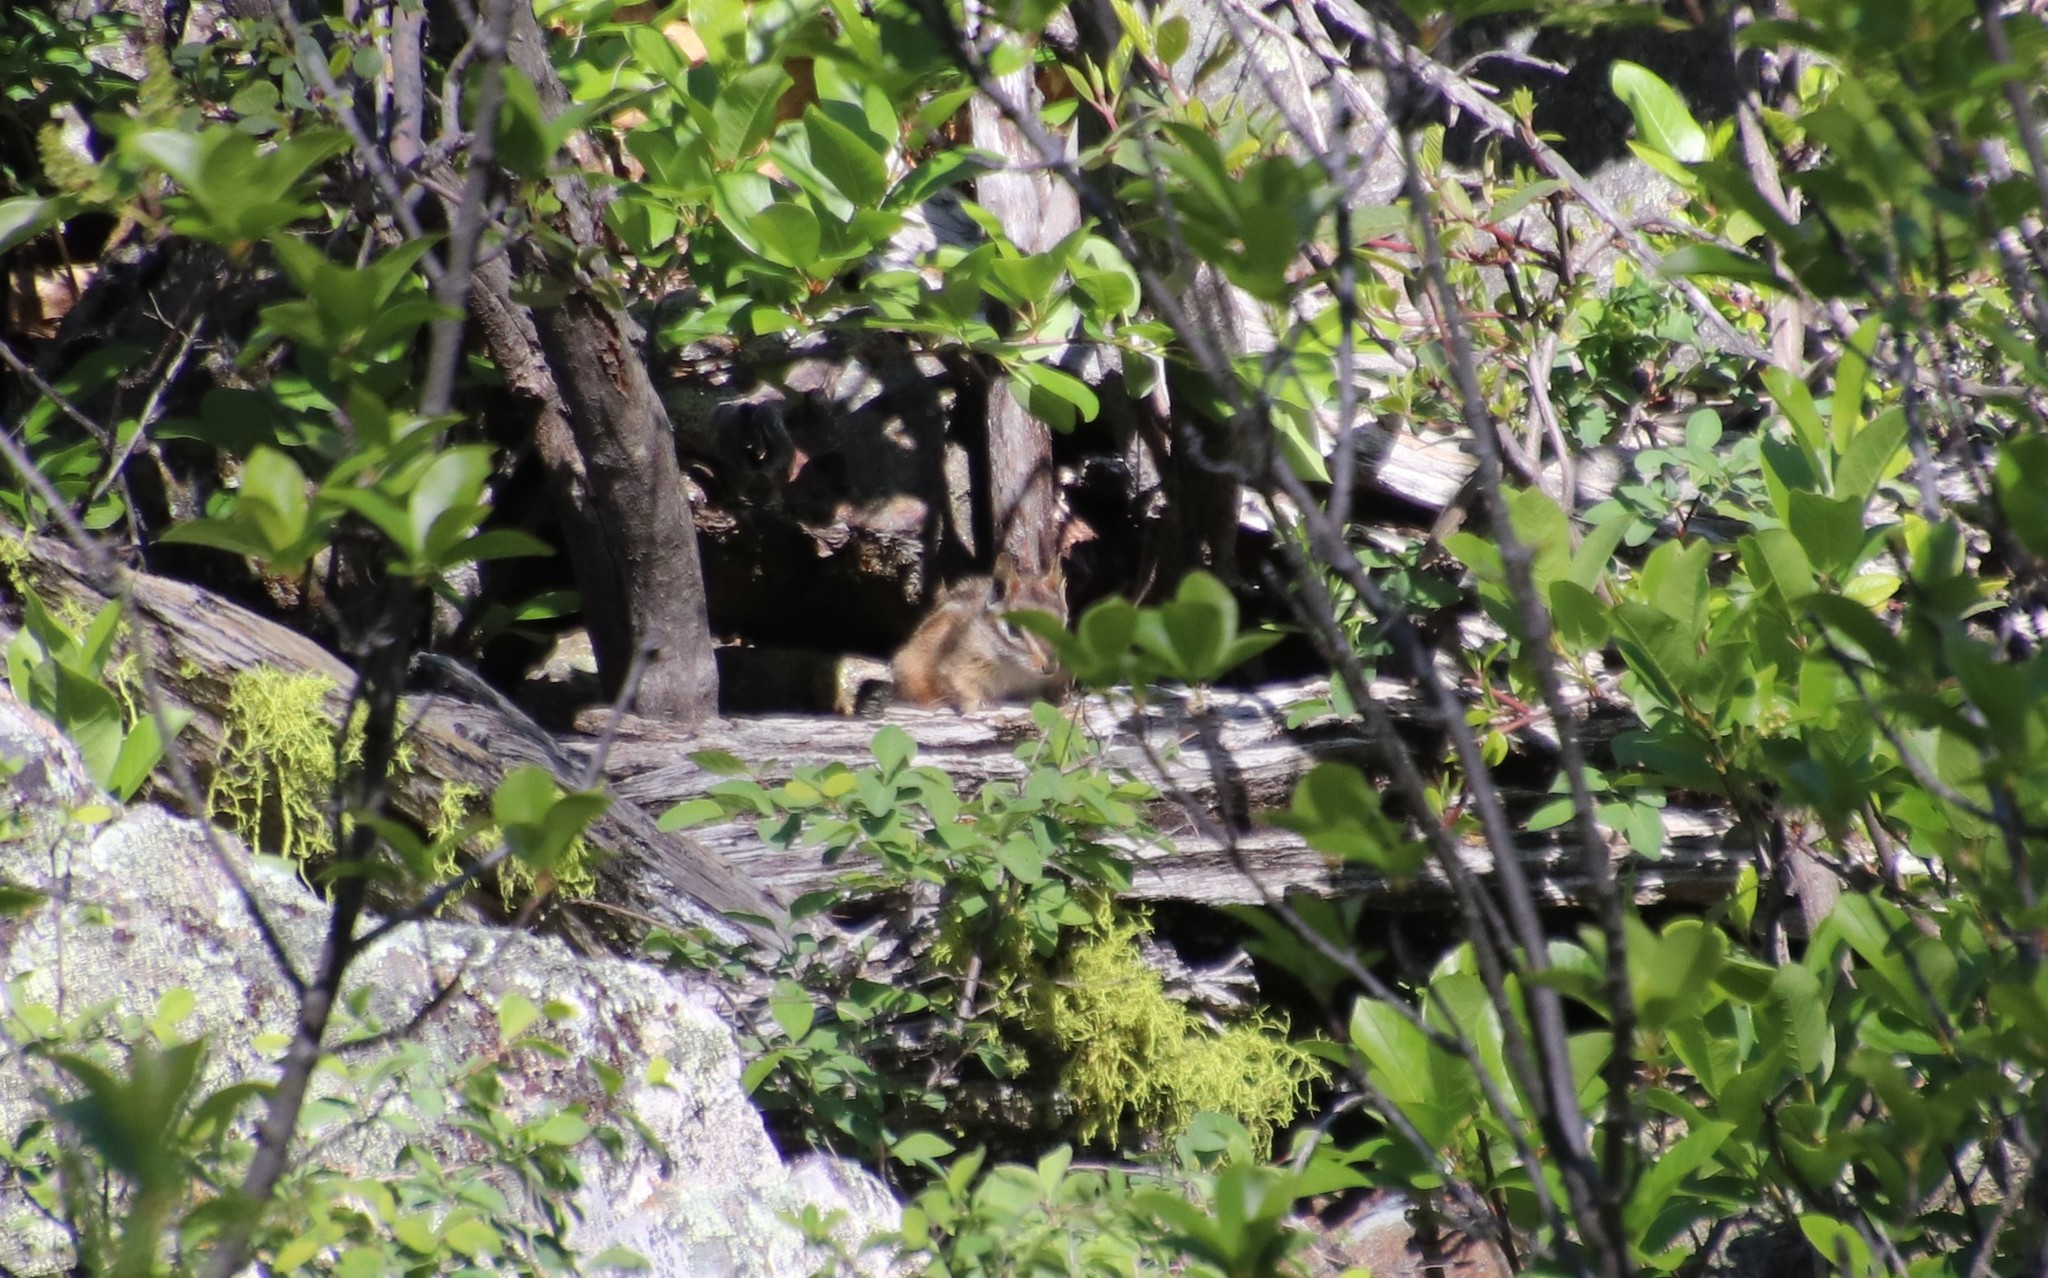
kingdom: Animalia
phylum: Chordata
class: Mammalia
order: Rodentia
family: Sciuridae
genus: Tamias
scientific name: Tamias merriami
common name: Merriam's chipmunk
